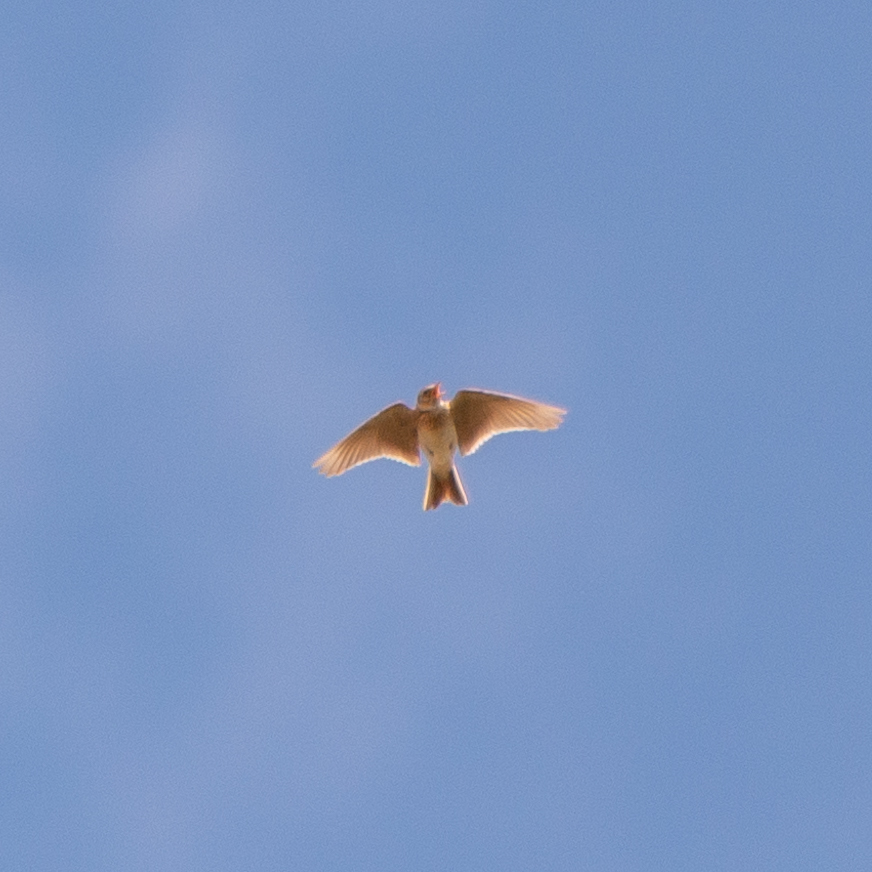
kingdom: Animalia
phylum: Chordata
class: Aves
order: Passeriformes
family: Alaudidae
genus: Alauda
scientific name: Alauda arvensis
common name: Eurasian skylark
